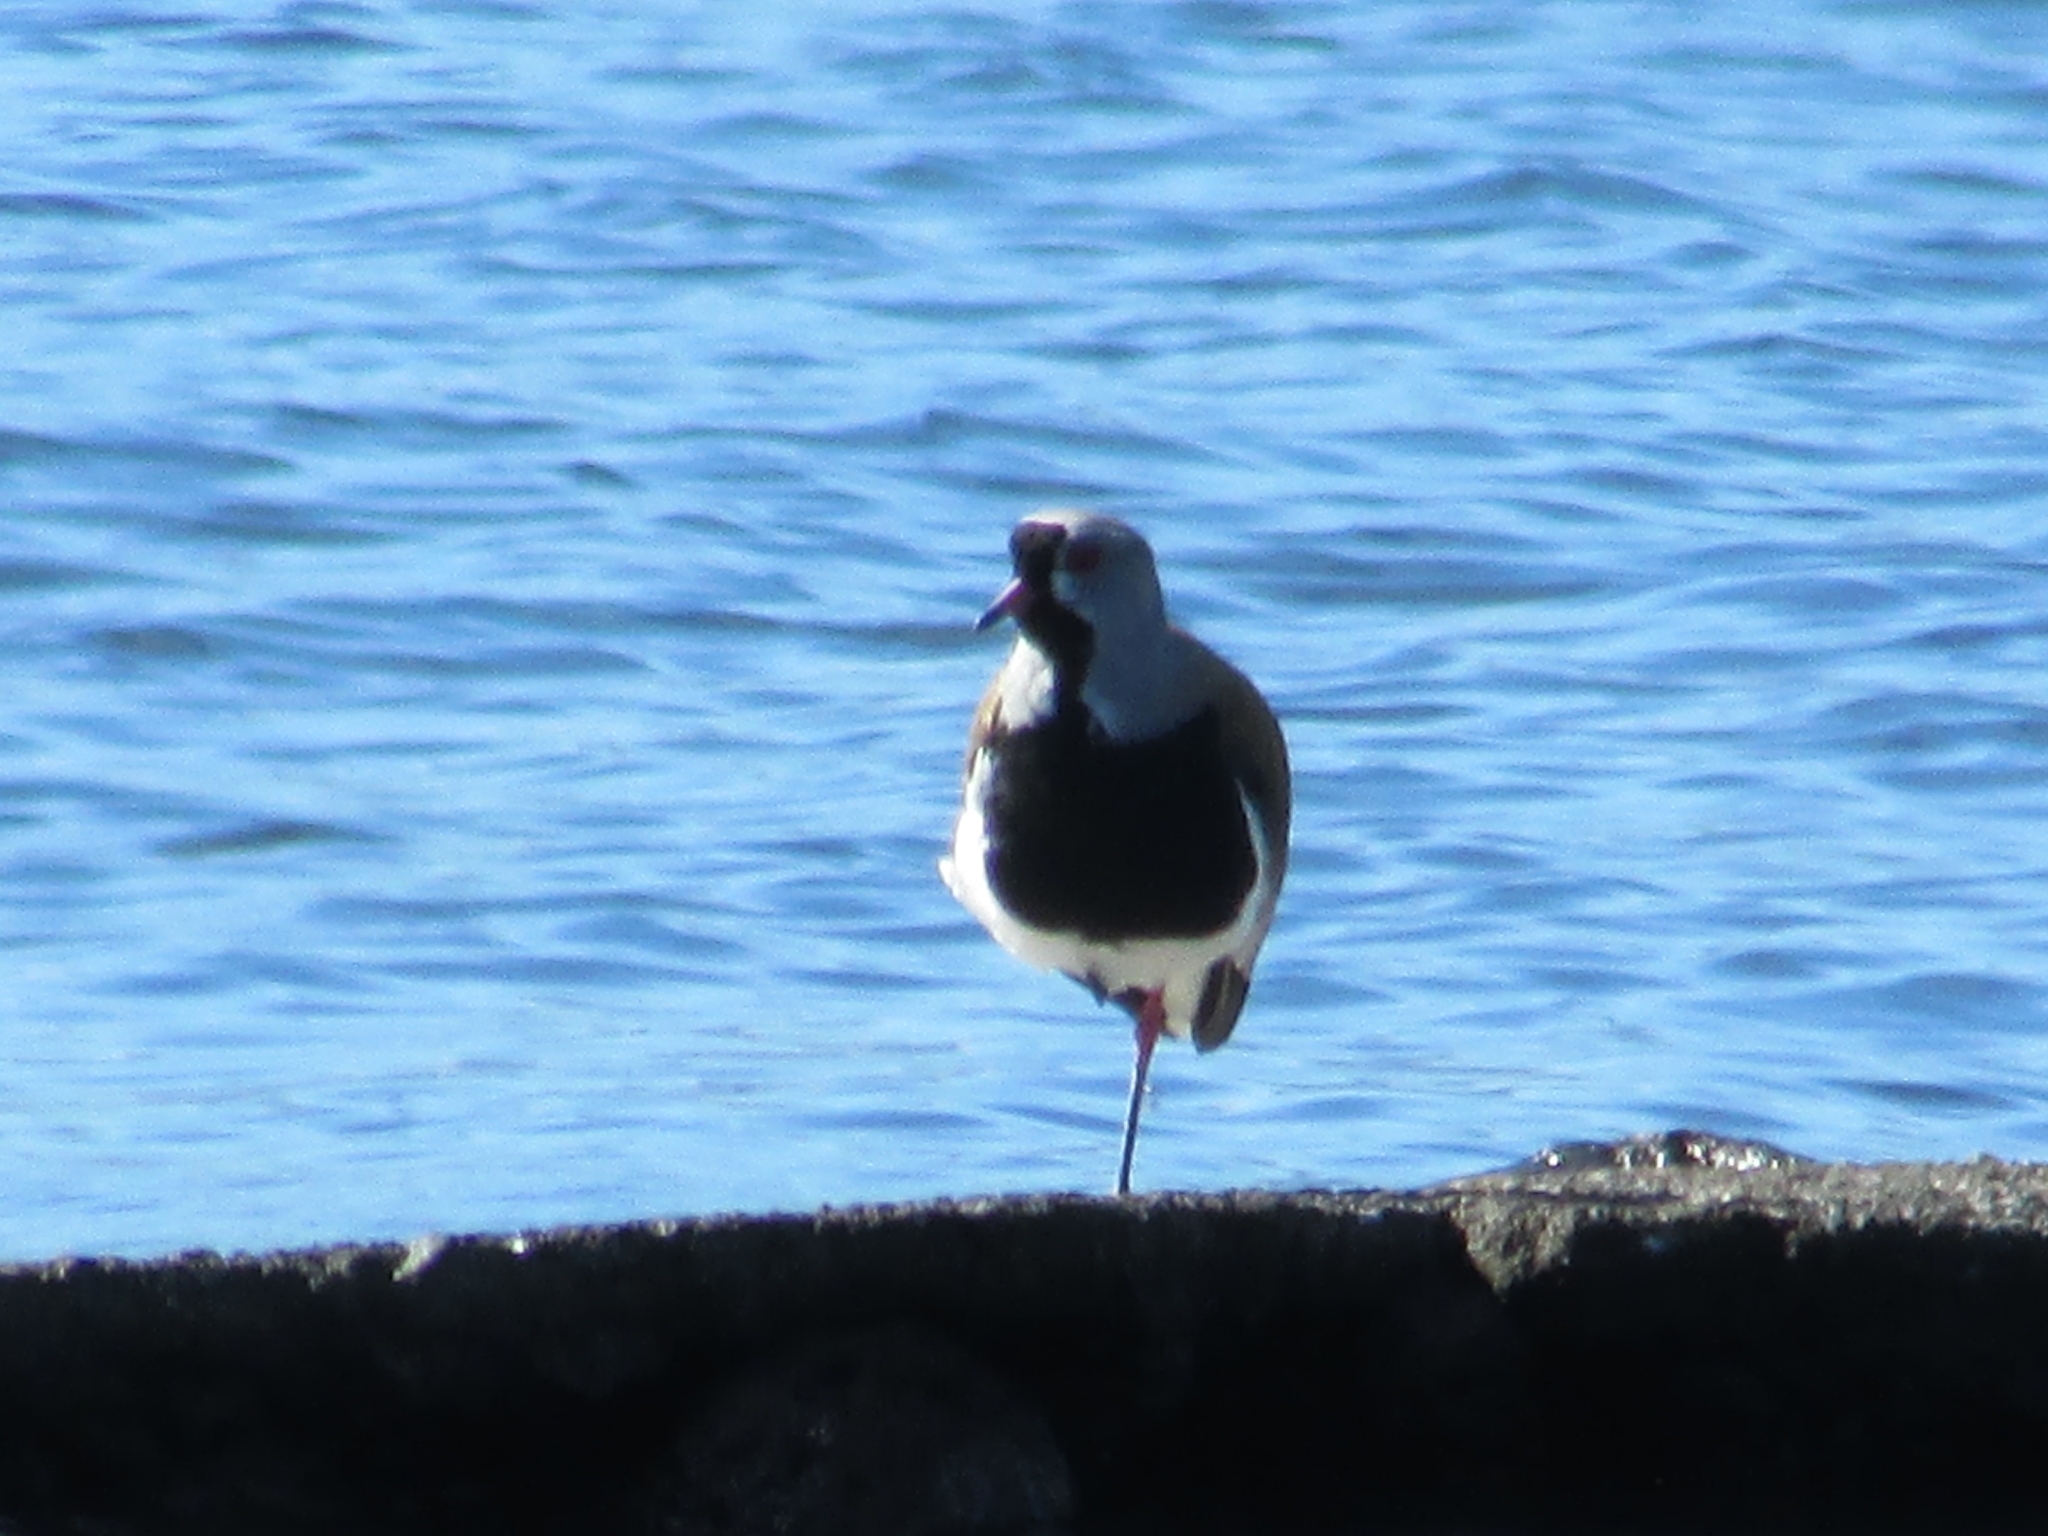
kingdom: Animalia
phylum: Chordata
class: Aves
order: Charadriiformes
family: Charadriidae
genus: Vanellus
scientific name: Vanellus chilensis
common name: Southern lapwing
